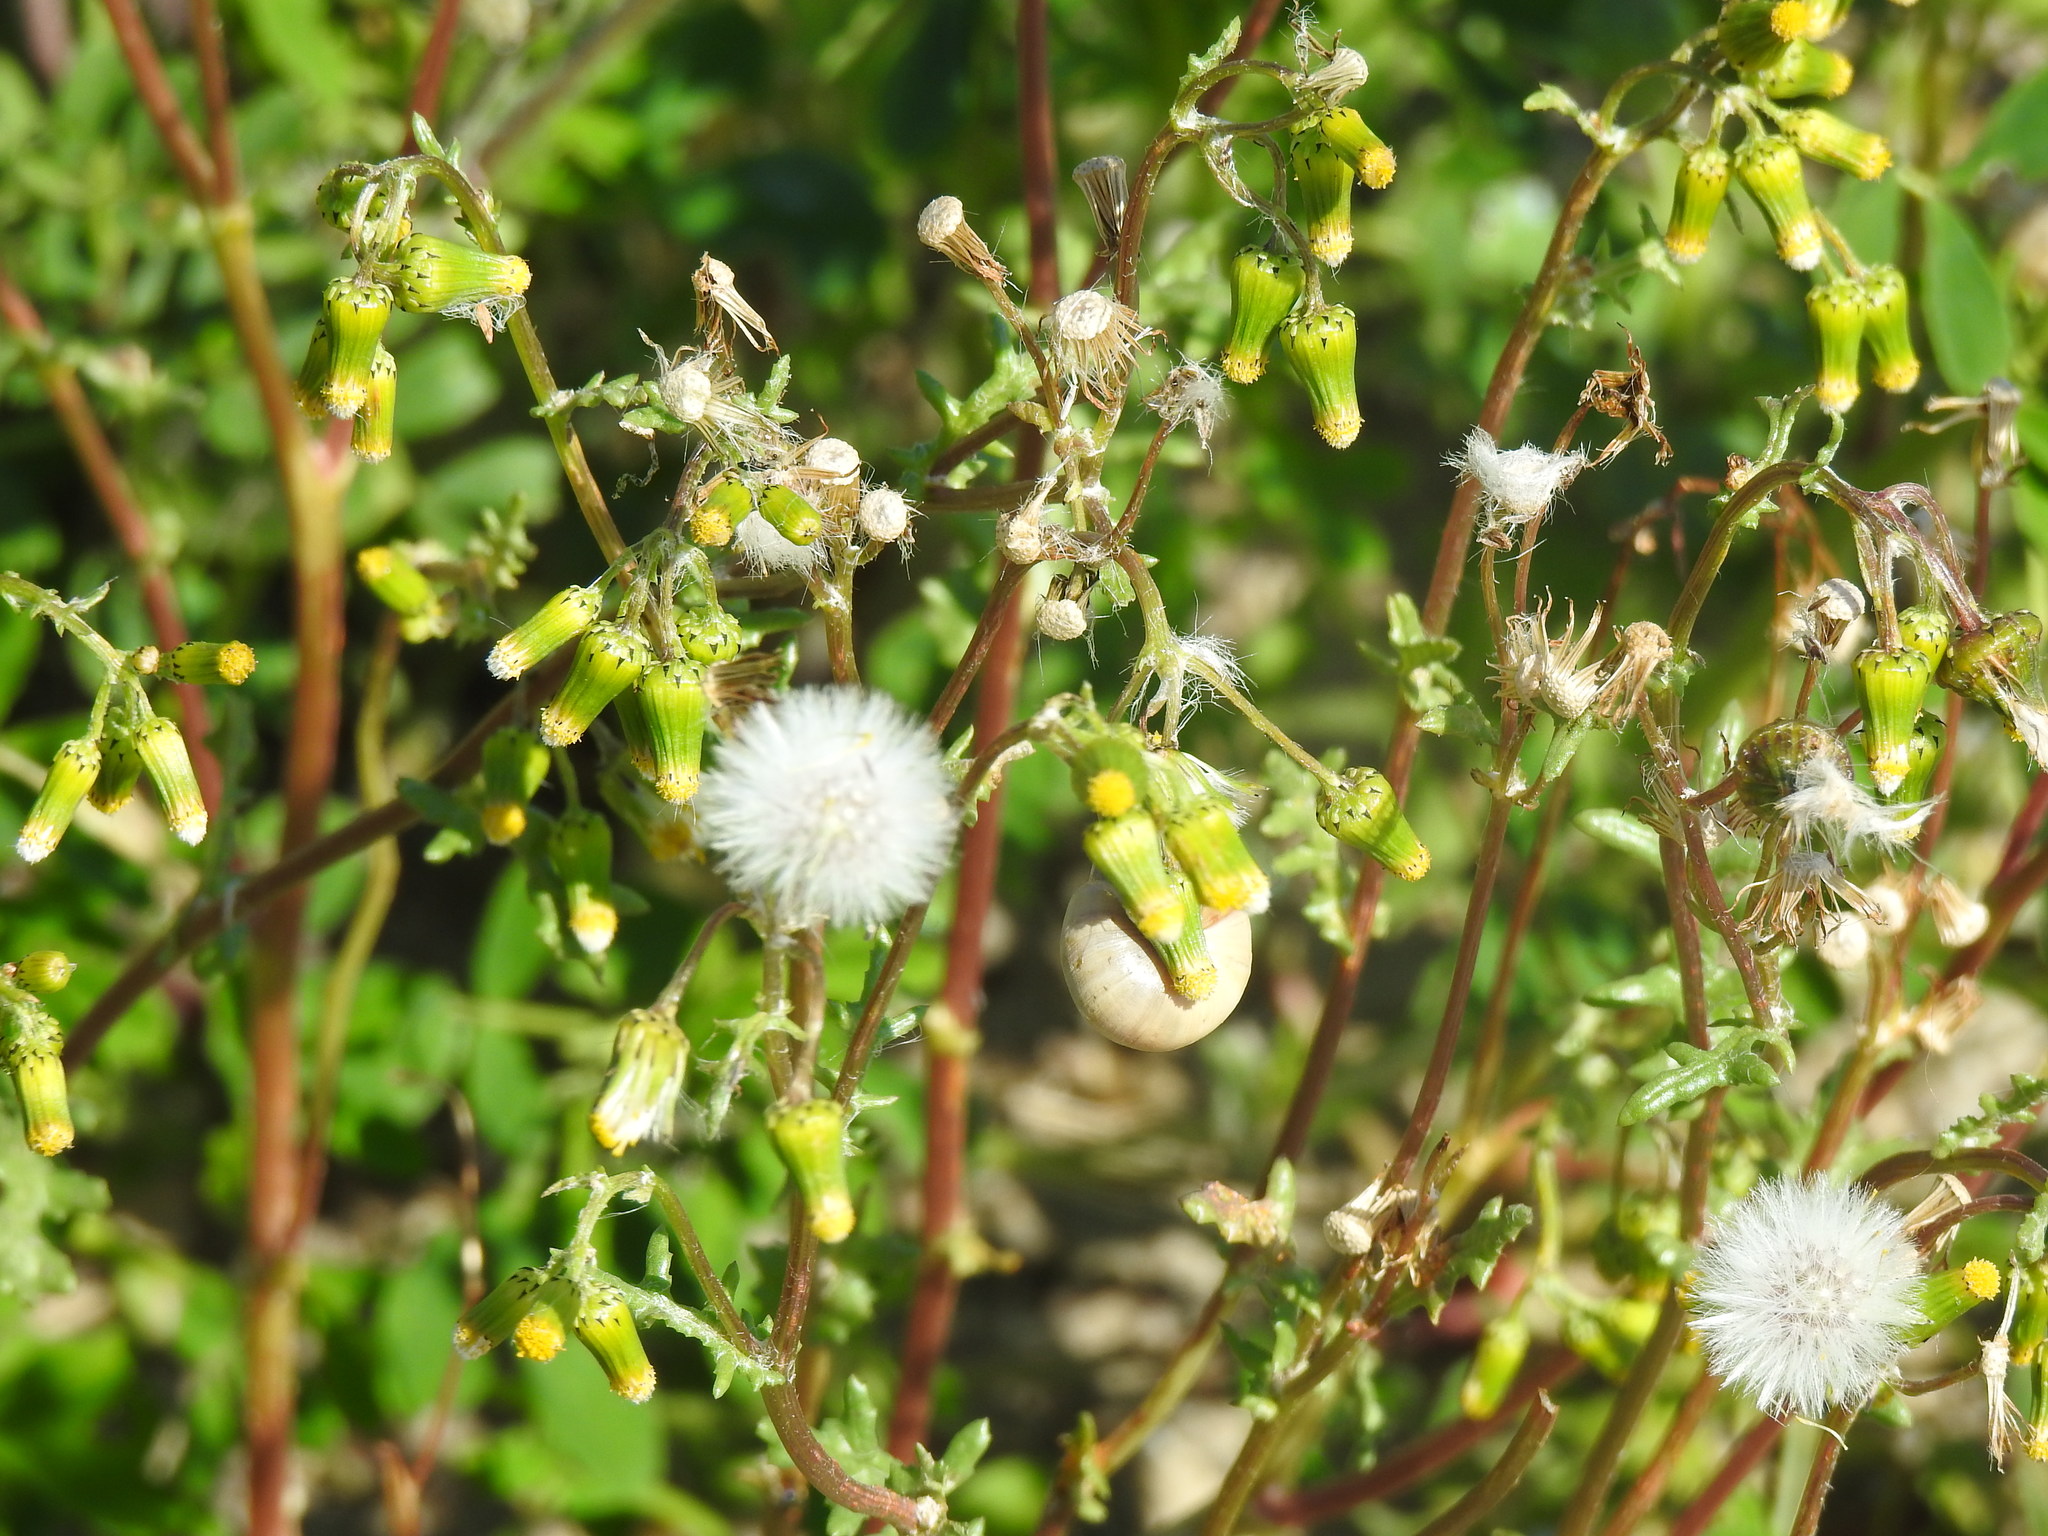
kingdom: Plantae
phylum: Tracheophyta
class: Magnoliopsida
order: Asterales
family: Asteraceae
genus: Senecio
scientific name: Senecio vulgaris
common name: Old-man-in-the-spring
